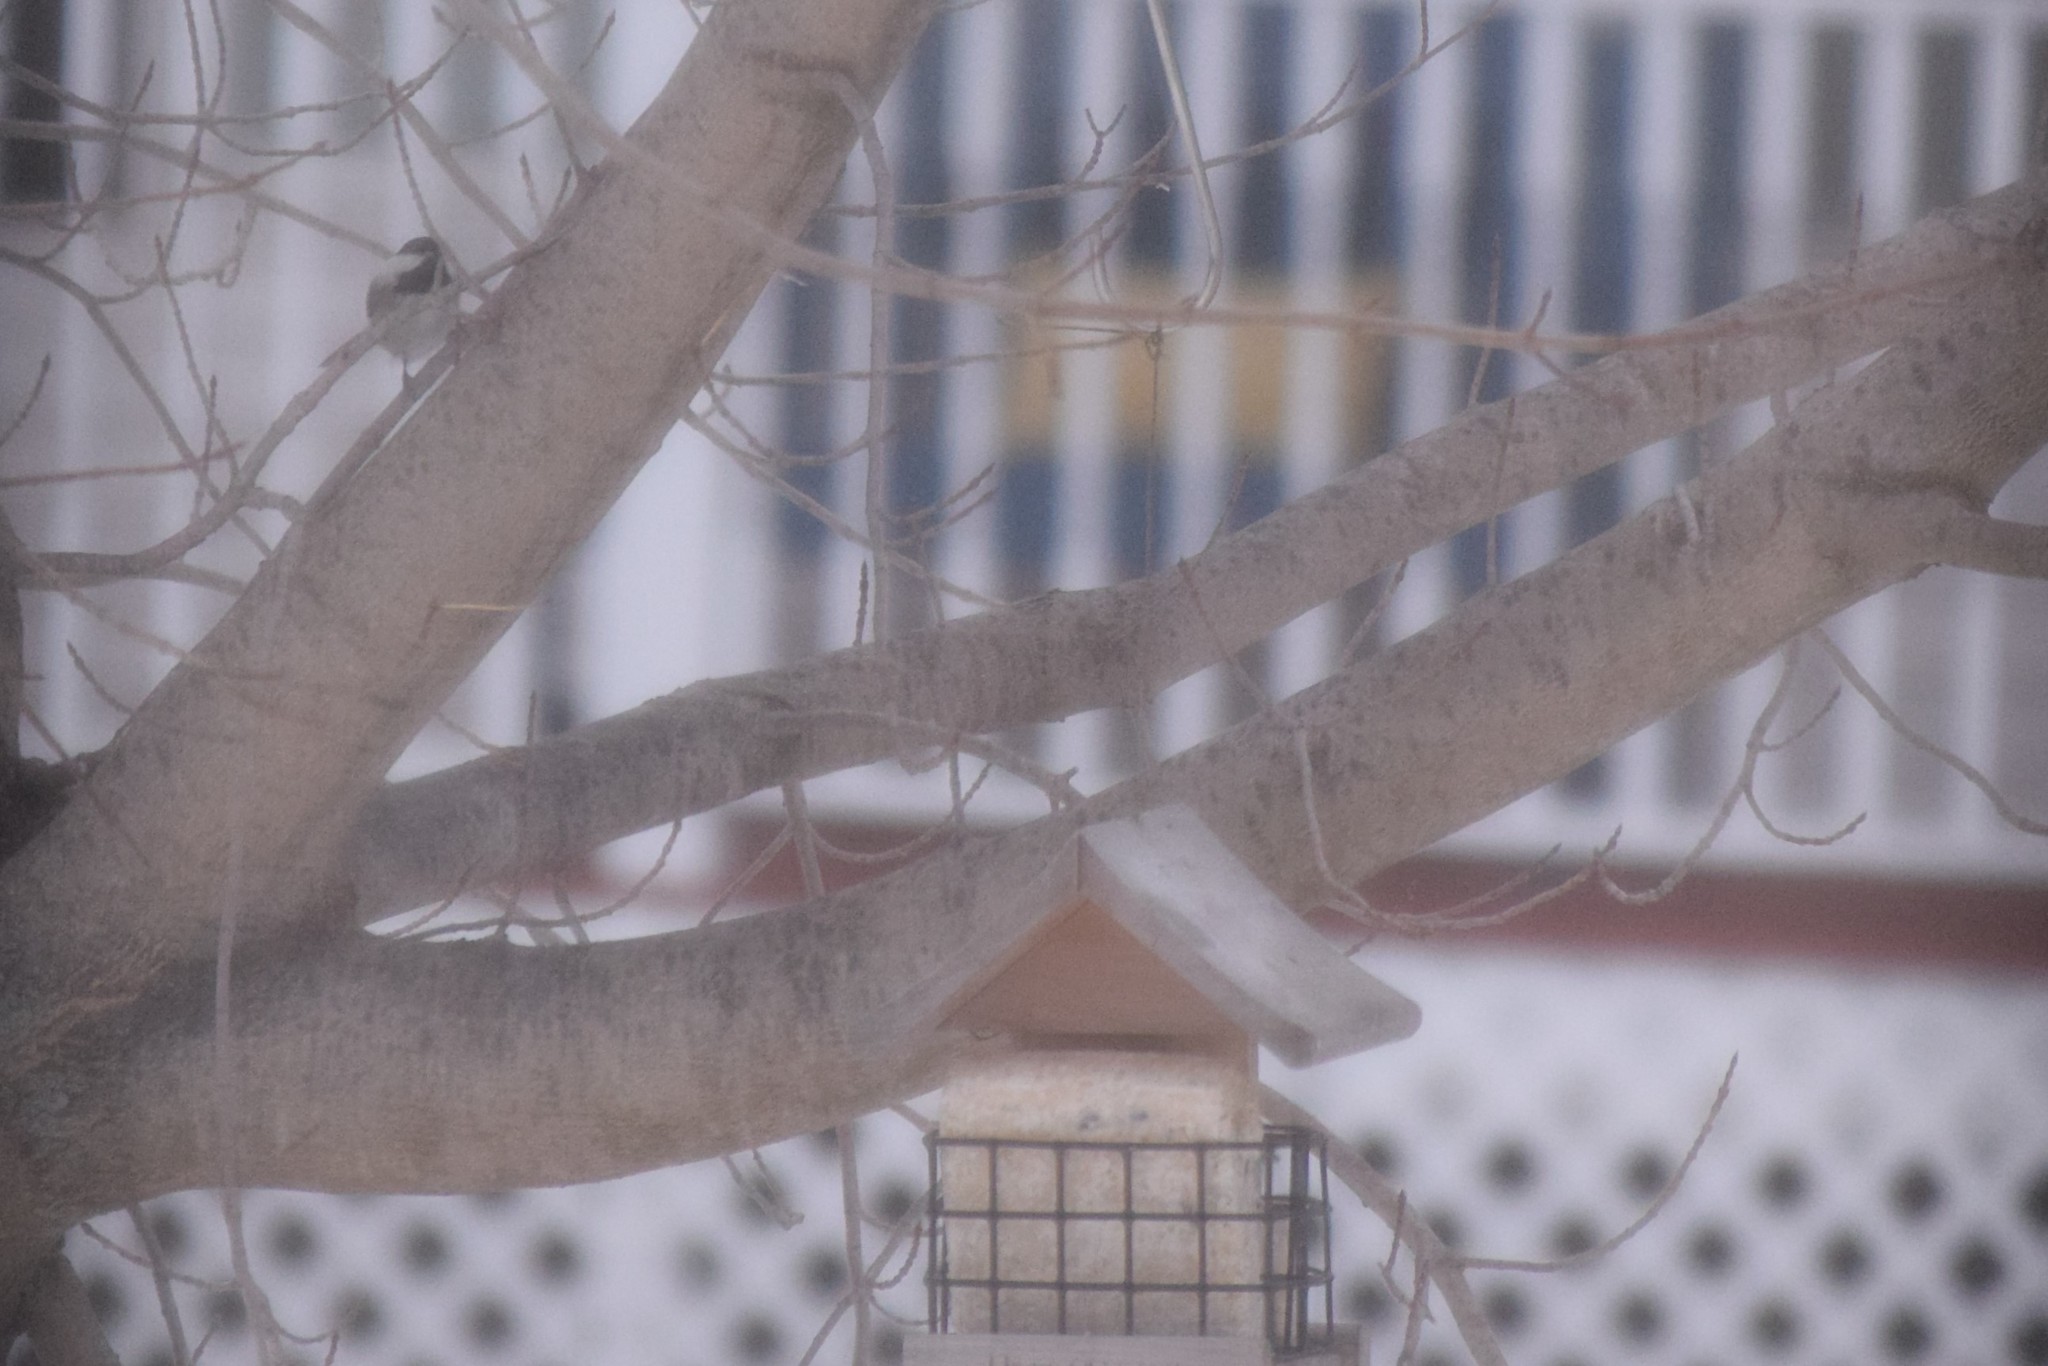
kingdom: Animalia
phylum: Chordata
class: Aves
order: Passeriformes
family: Paridae
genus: Poecile
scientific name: Poecile atricapillus
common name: Black-capped chickadee
